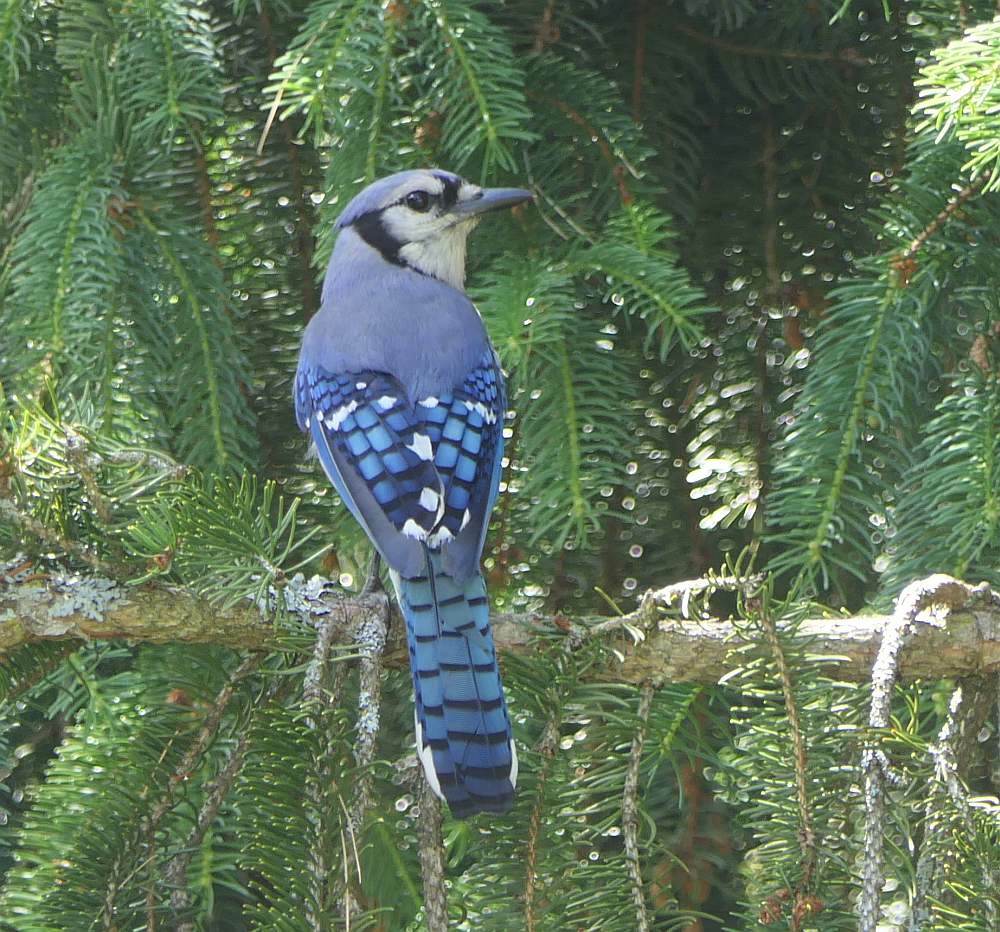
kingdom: Animalia
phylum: Chordata
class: Aves
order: Passeriformes
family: Corvidae
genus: Cyanocitta
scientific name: Cyanocitta cristata
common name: Blue jay
